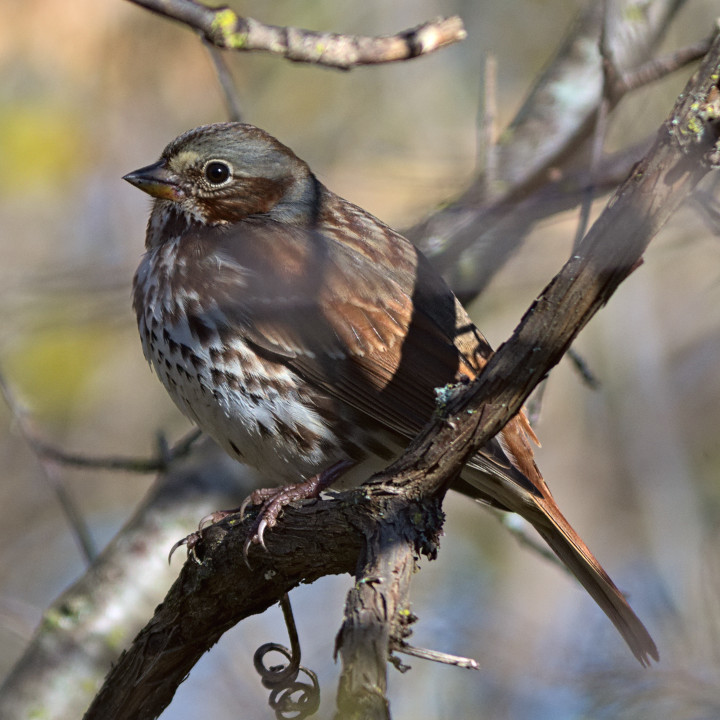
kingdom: Animalia
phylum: Chordata
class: Aves
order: Passeriformes
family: Passerellidae
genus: Passerella
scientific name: Passerella iliaca
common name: Fox sparrow
